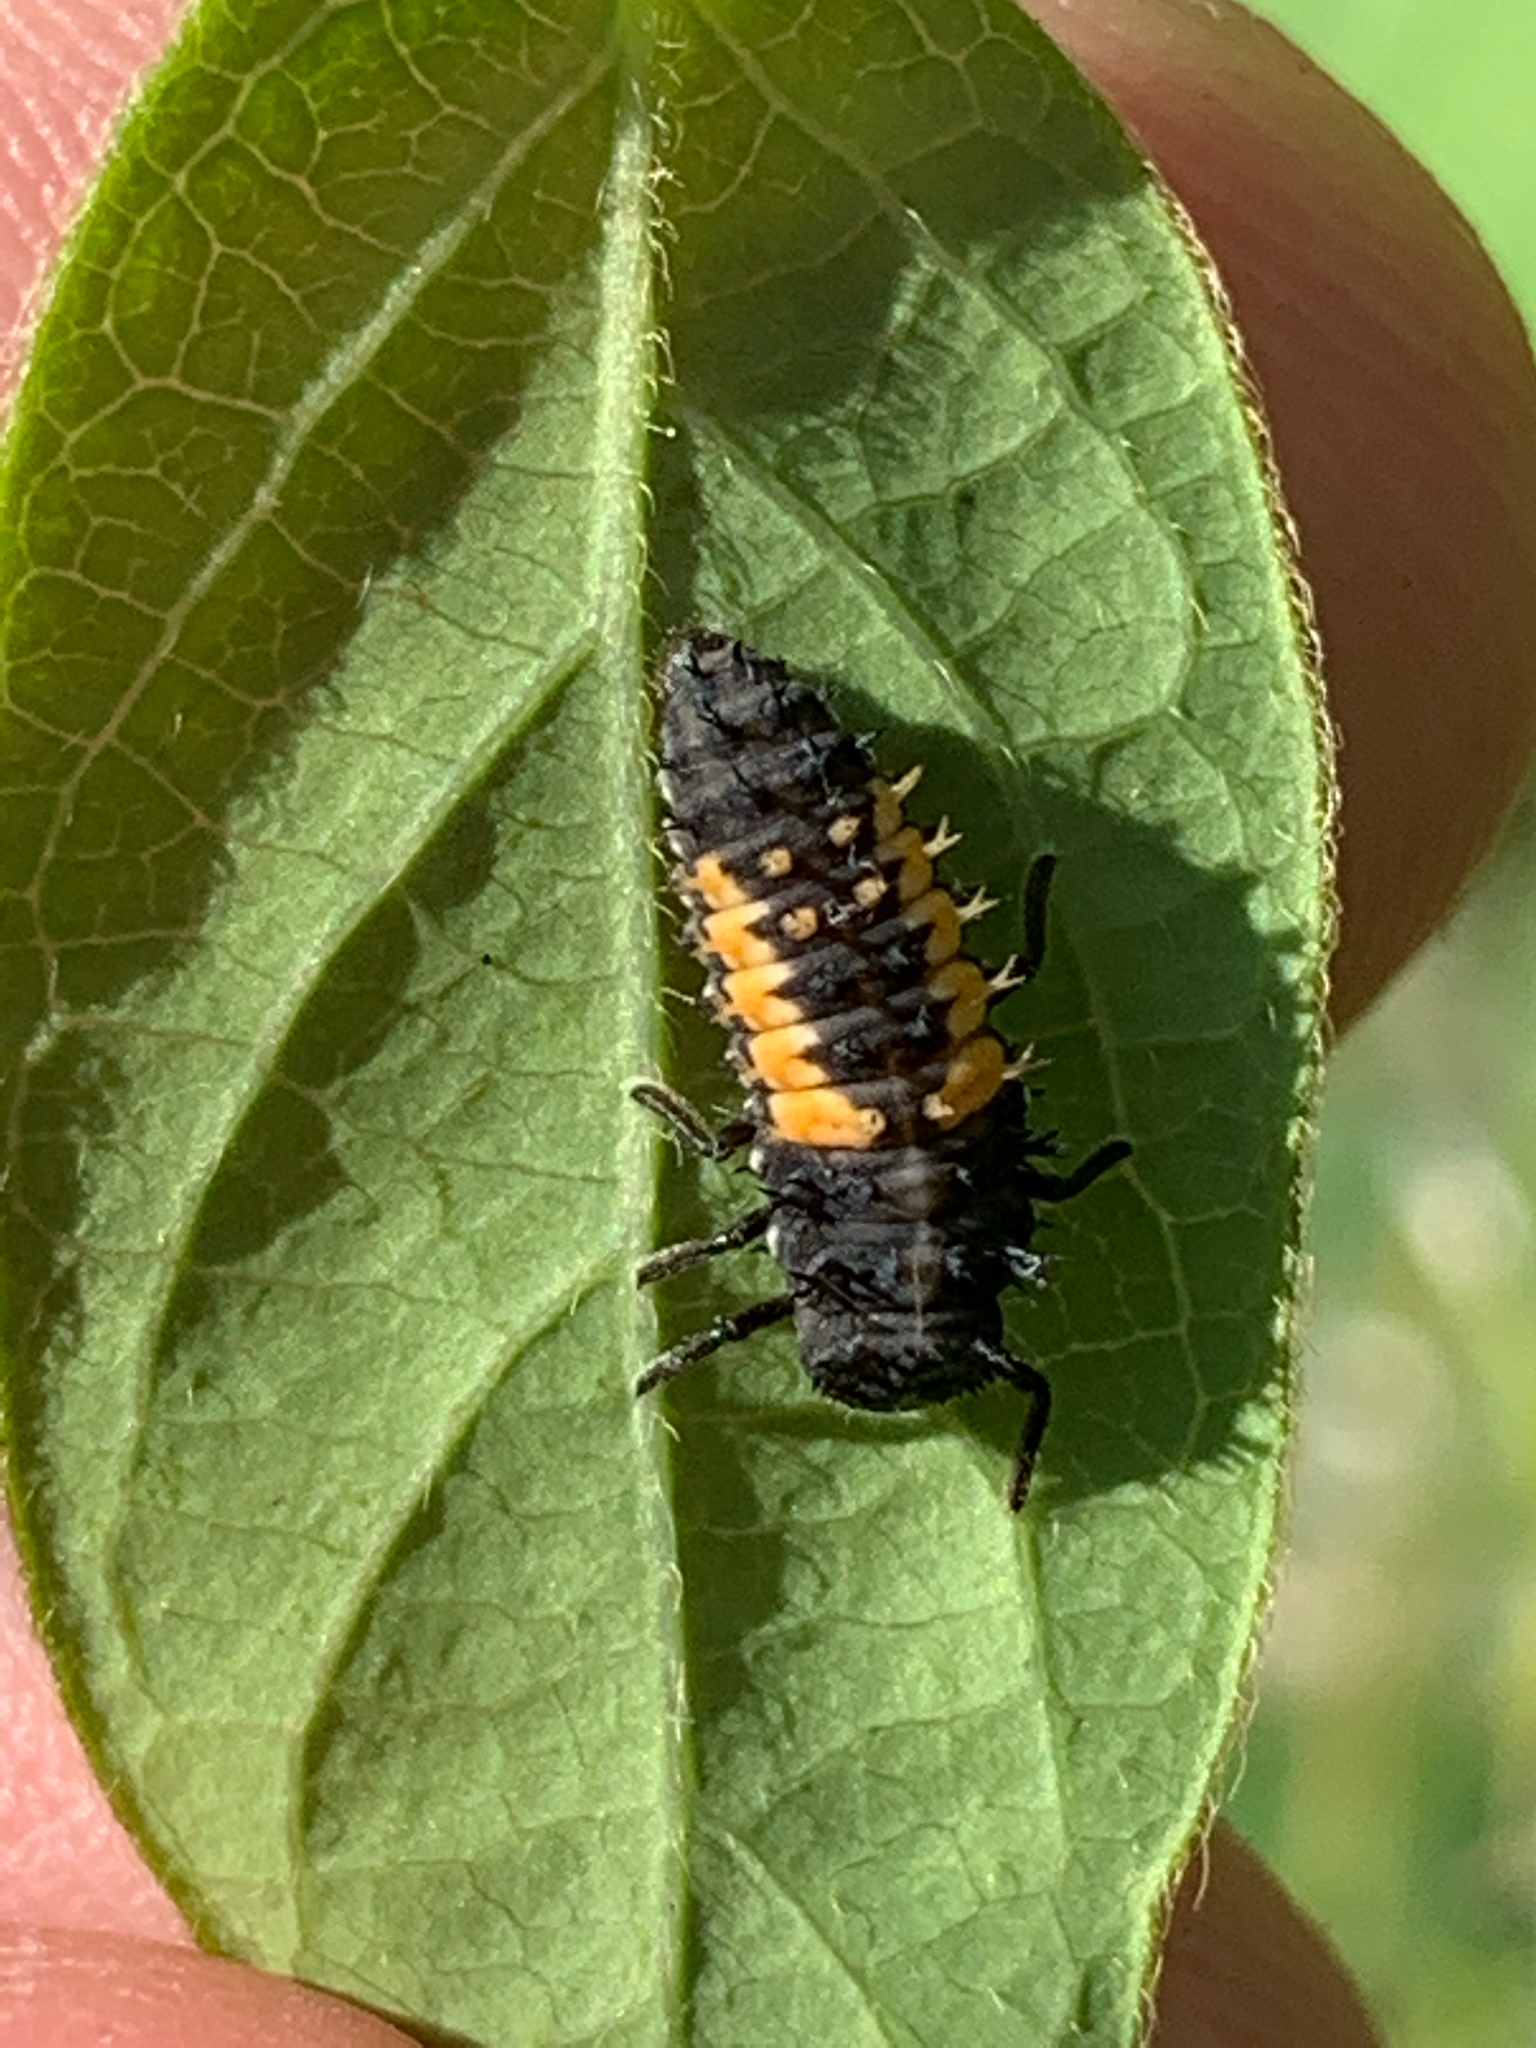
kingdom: Animalia
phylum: Arthropoda
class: Insecta
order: Coleoptera
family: Coccinellidae
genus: Harmonia
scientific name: Harmonia axyridis
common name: Harlequin ladybird
